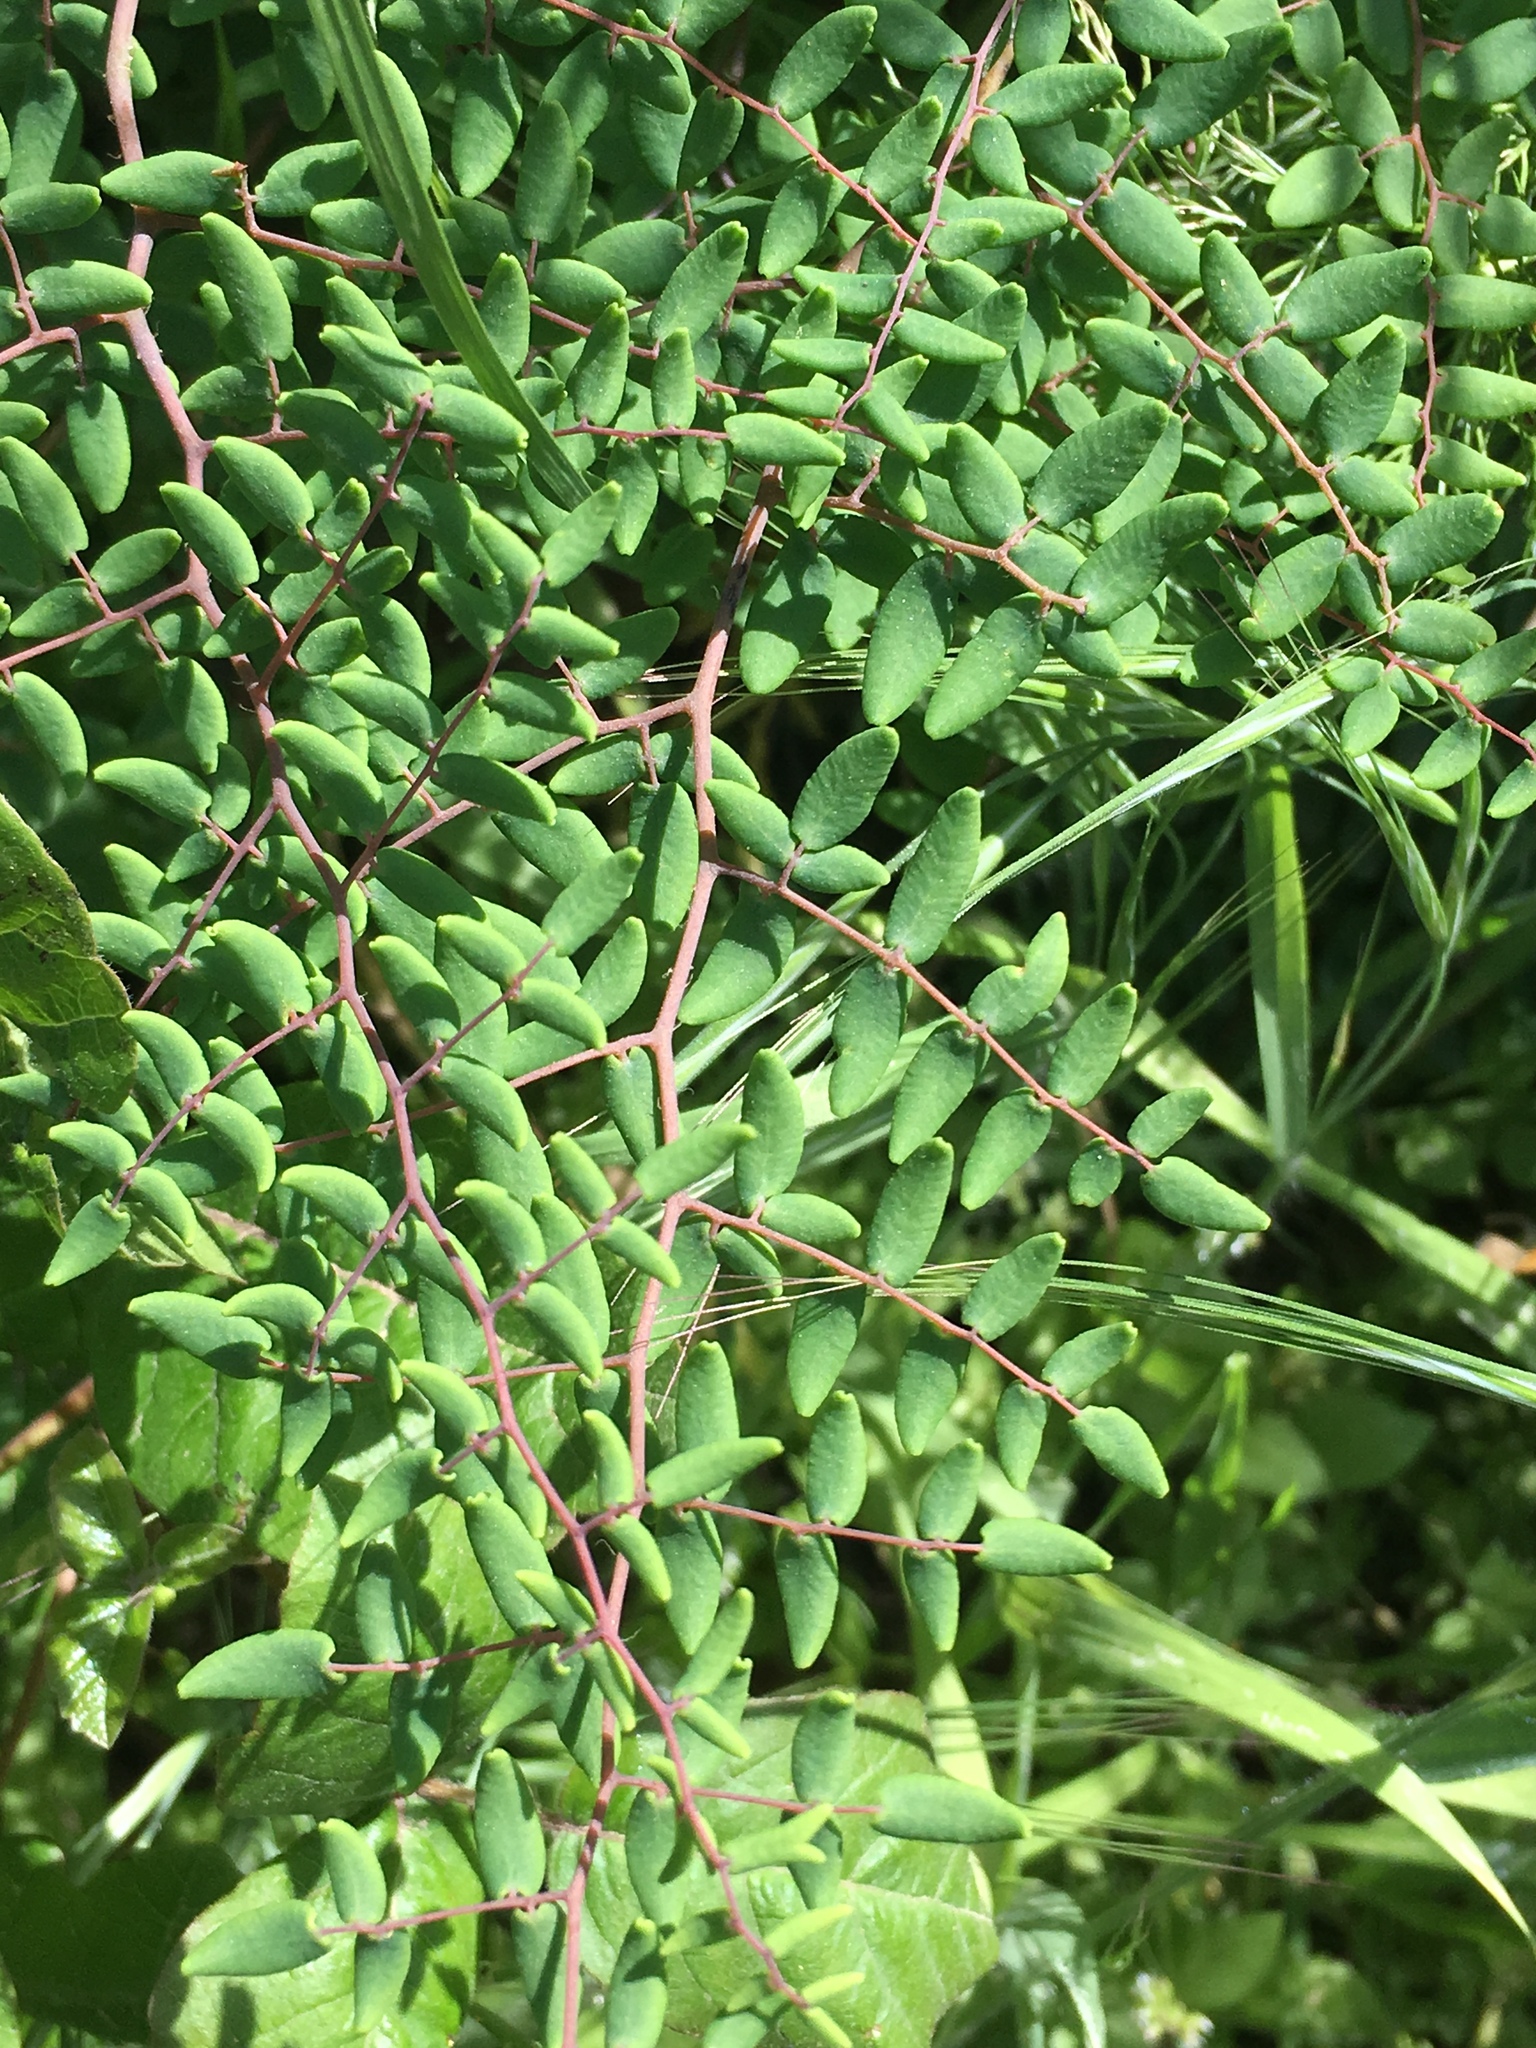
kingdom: Plantae
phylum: Tracheophyta
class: Polypodiopsida
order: Polypodiales
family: Pteridaceae
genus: Pellaea
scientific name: Pellaea andromedifolia
